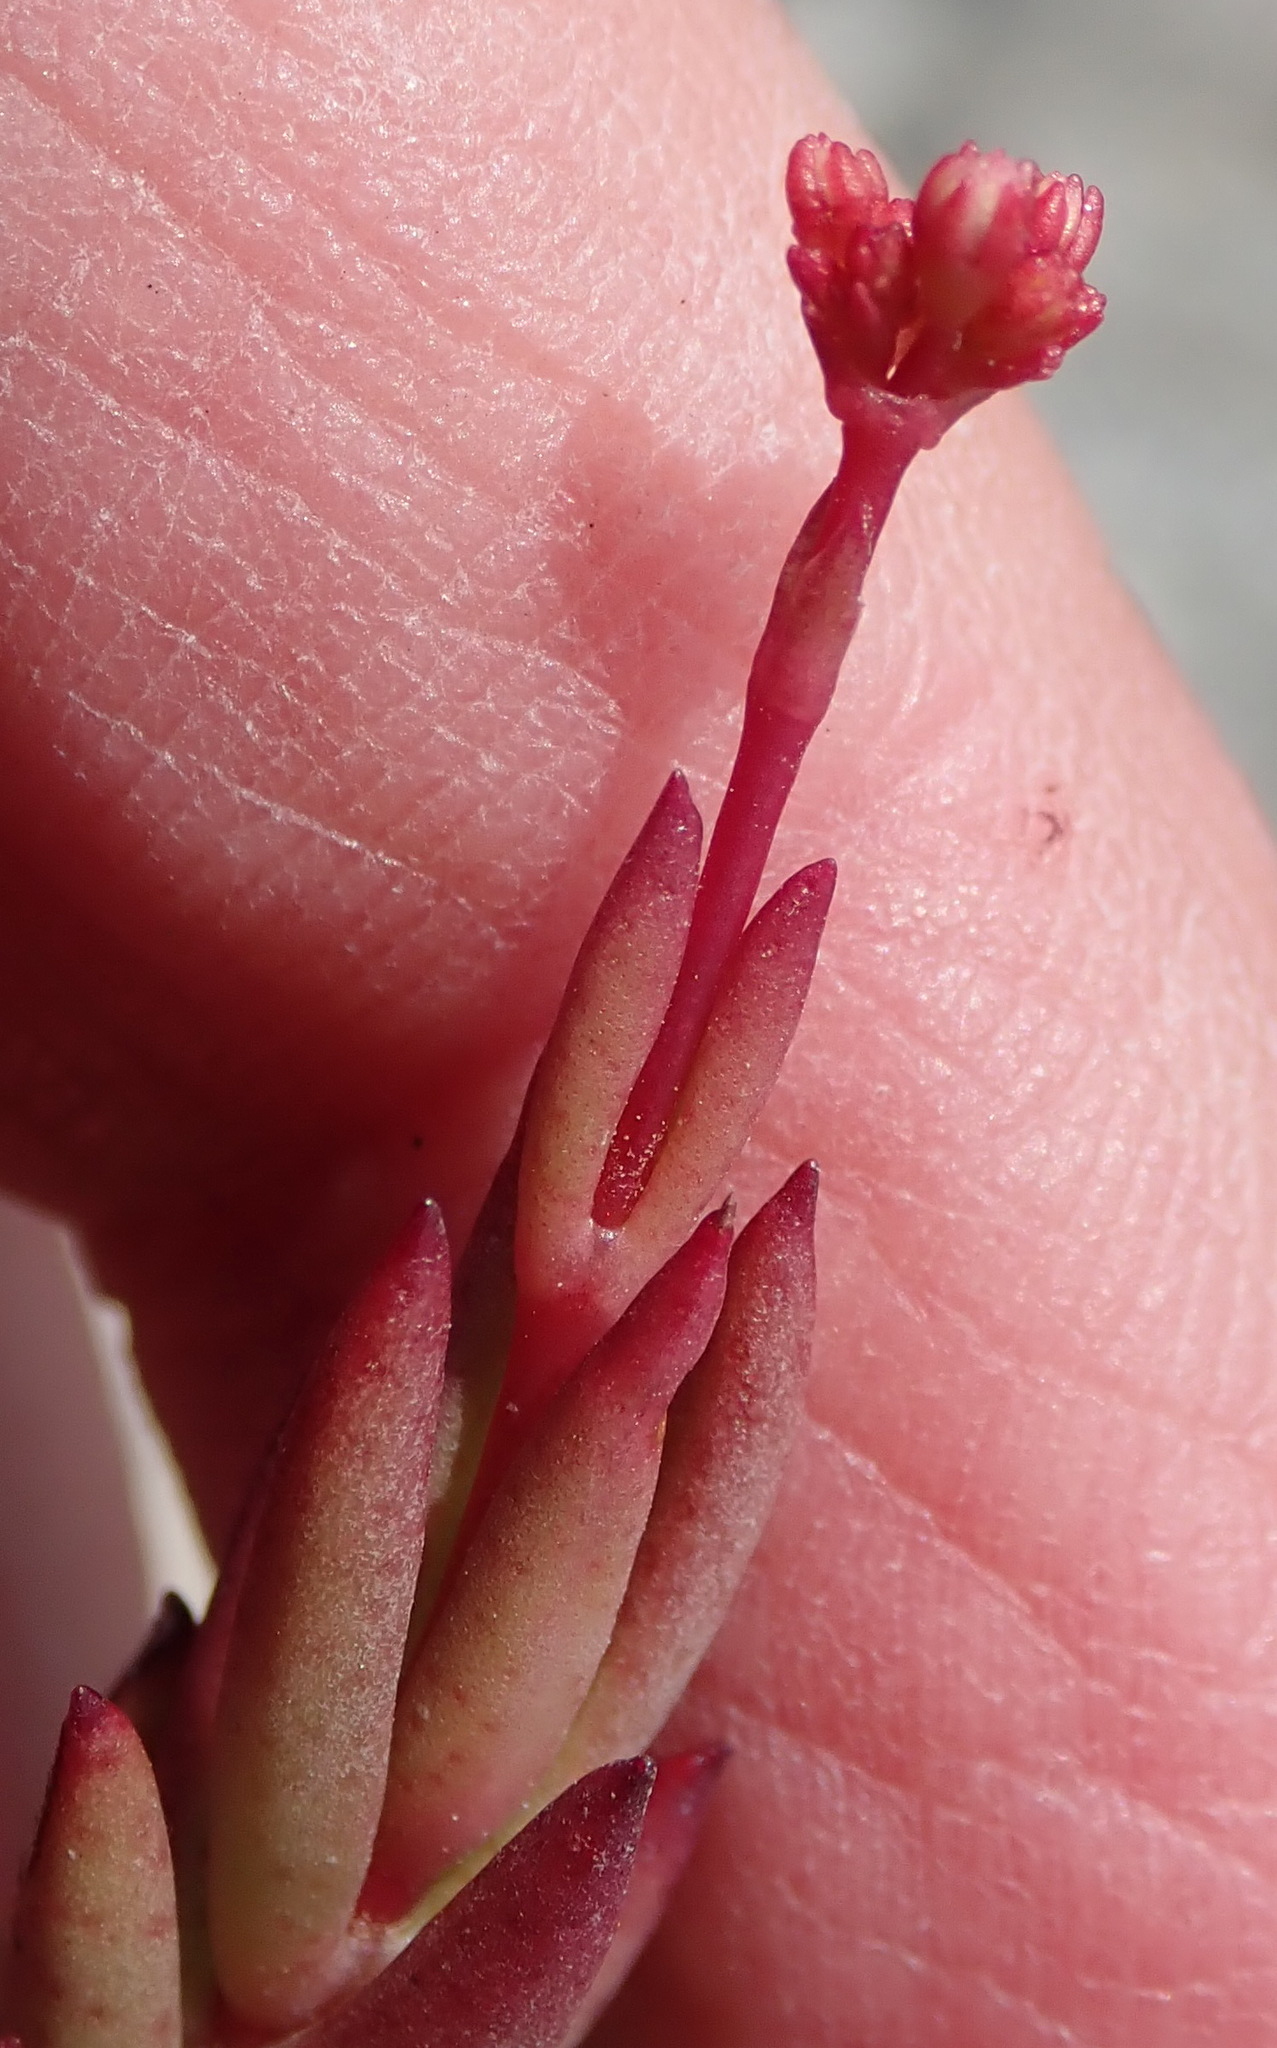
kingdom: Plantae
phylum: Tracheophyta
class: Magnoliopsida
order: Saxifragales
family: Crassulaceae
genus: Crassula
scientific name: Crassula biplanata
